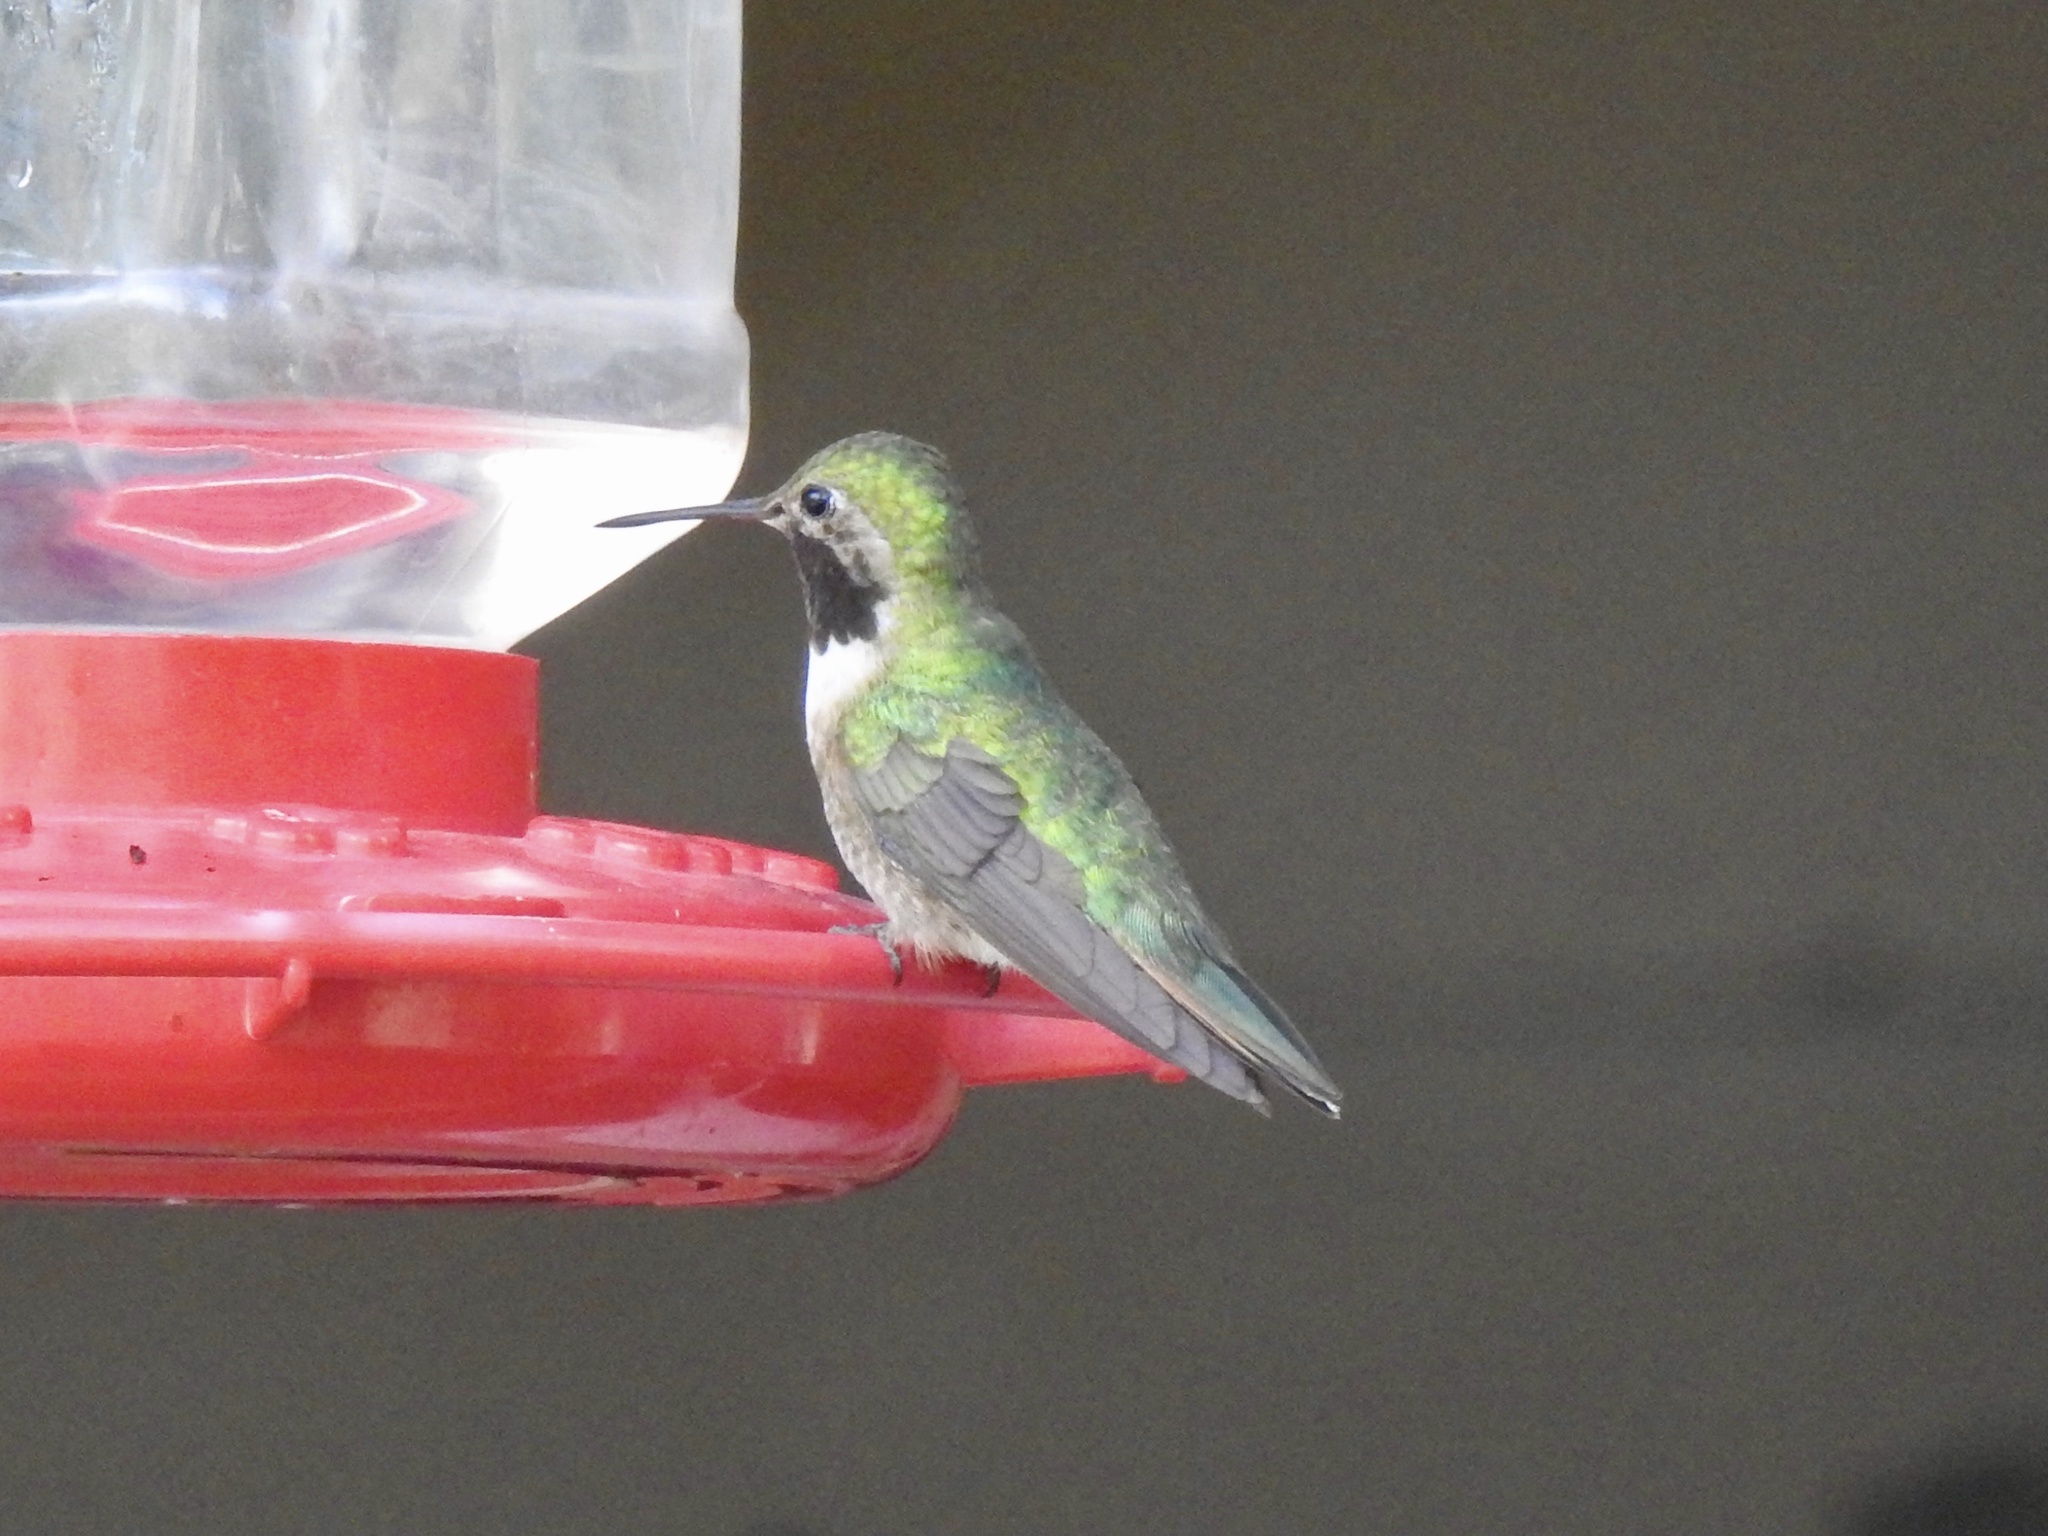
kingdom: Animalia
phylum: Chordata
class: Aves
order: Apodiformes
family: Trochilidae
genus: Selasphorus
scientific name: Selasphorus platycercus
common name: Broad-tailed hummingbird
